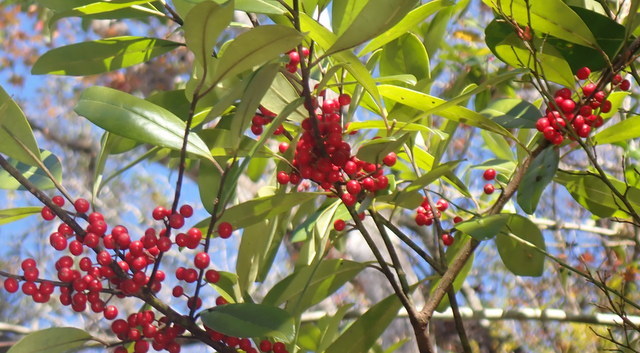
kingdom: Plantae
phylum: Tracheophyta
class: Magnoliopsida
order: Aquifoliales
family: Aquifoliaceae
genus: Ilex
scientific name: Ilex cassine
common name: Dahoon
